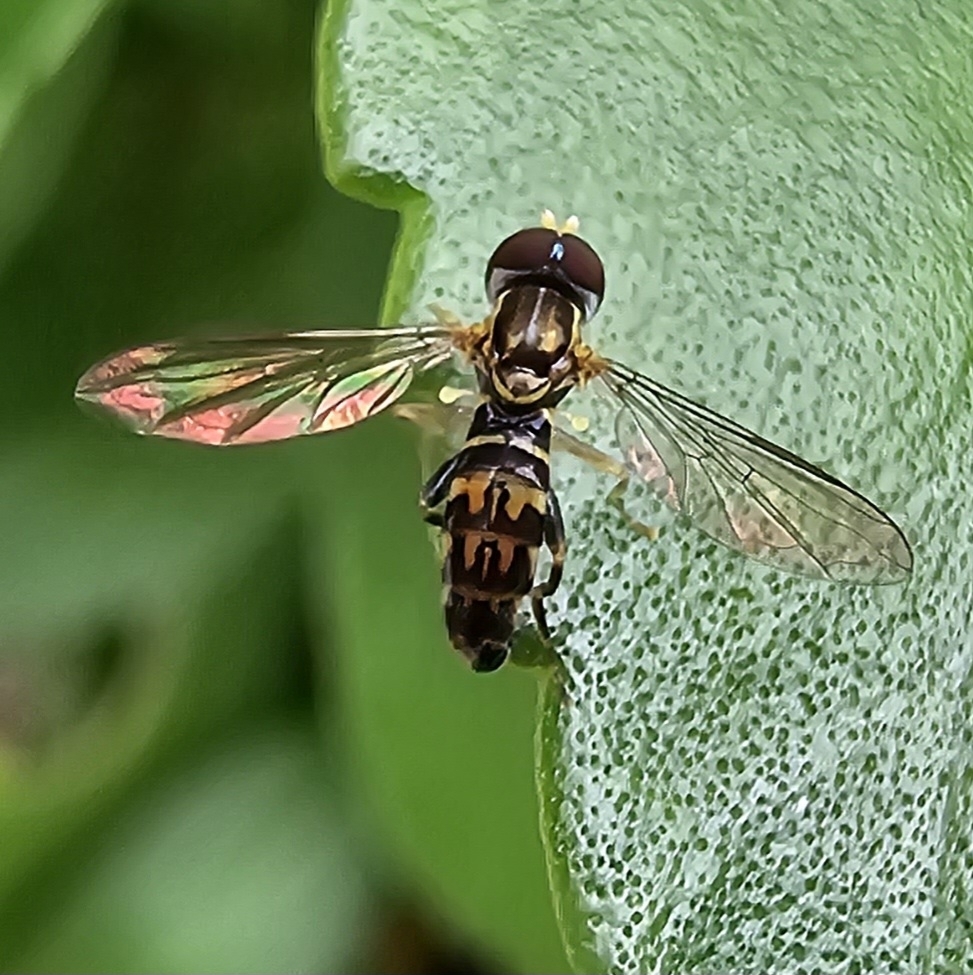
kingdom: Animalia
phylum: Arthropoda
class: Insecta
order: Diptera
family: Syrphidae
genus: Toxomerus
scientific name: Toxomerus geminatus
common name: Eastern calligrapher
